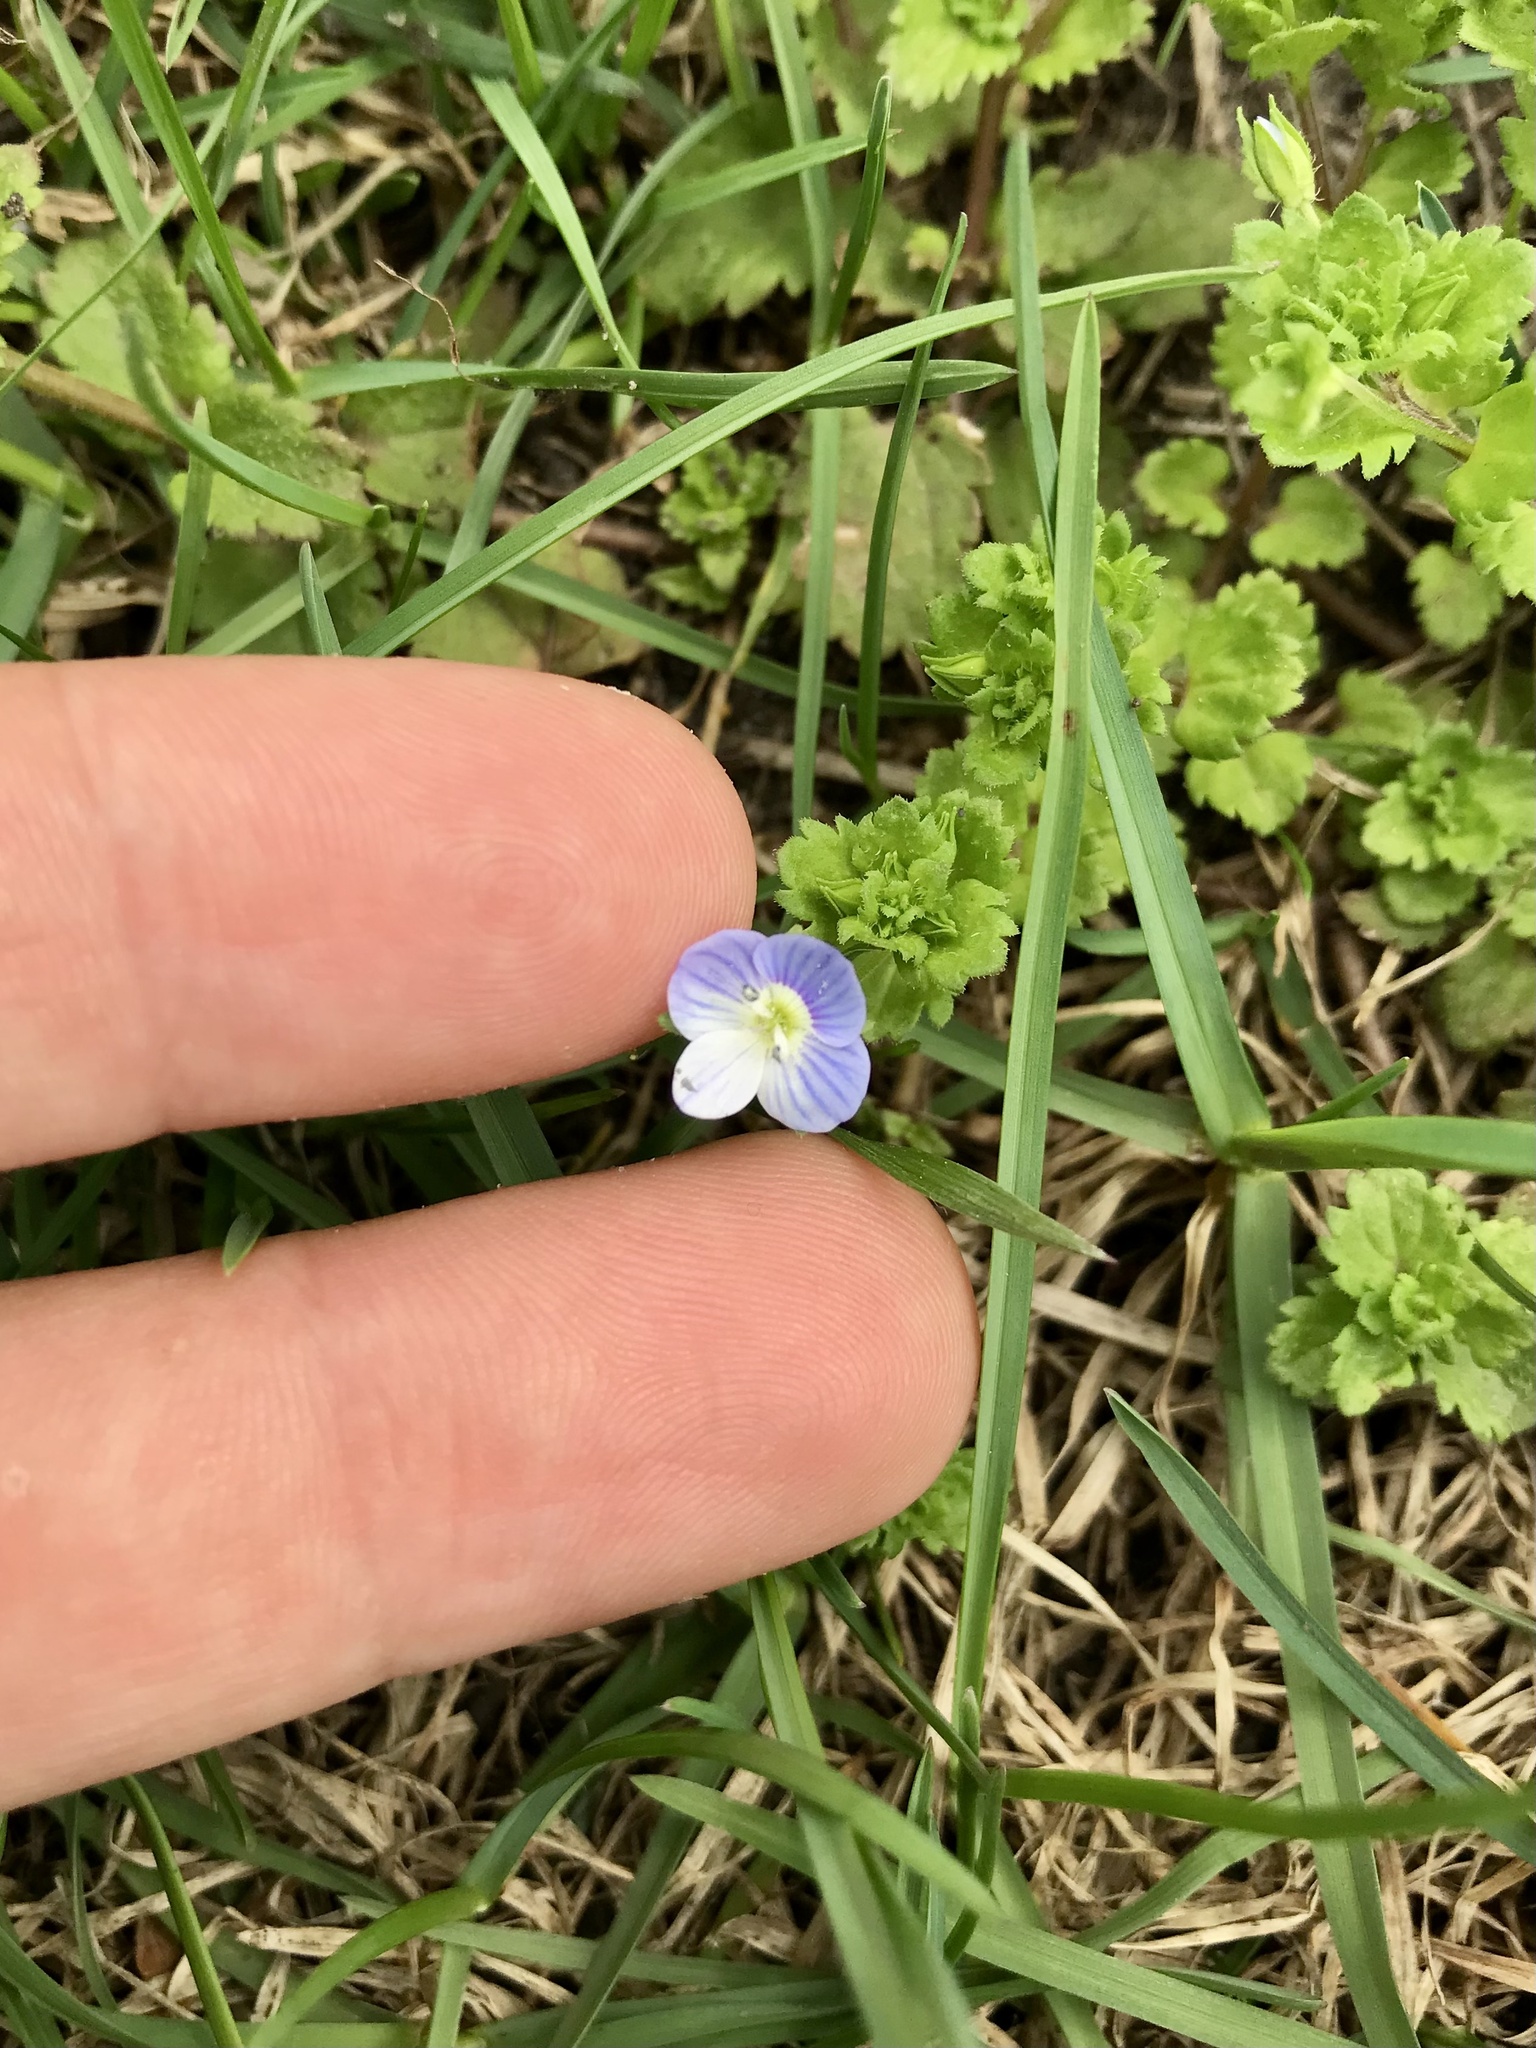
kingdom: Plantae
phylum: Tracheophyta
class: Magnoliopsida
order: Lamiales
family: Plantaginaceae
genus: Veronica
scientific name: Veronica persica
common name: Common field-speedwell
